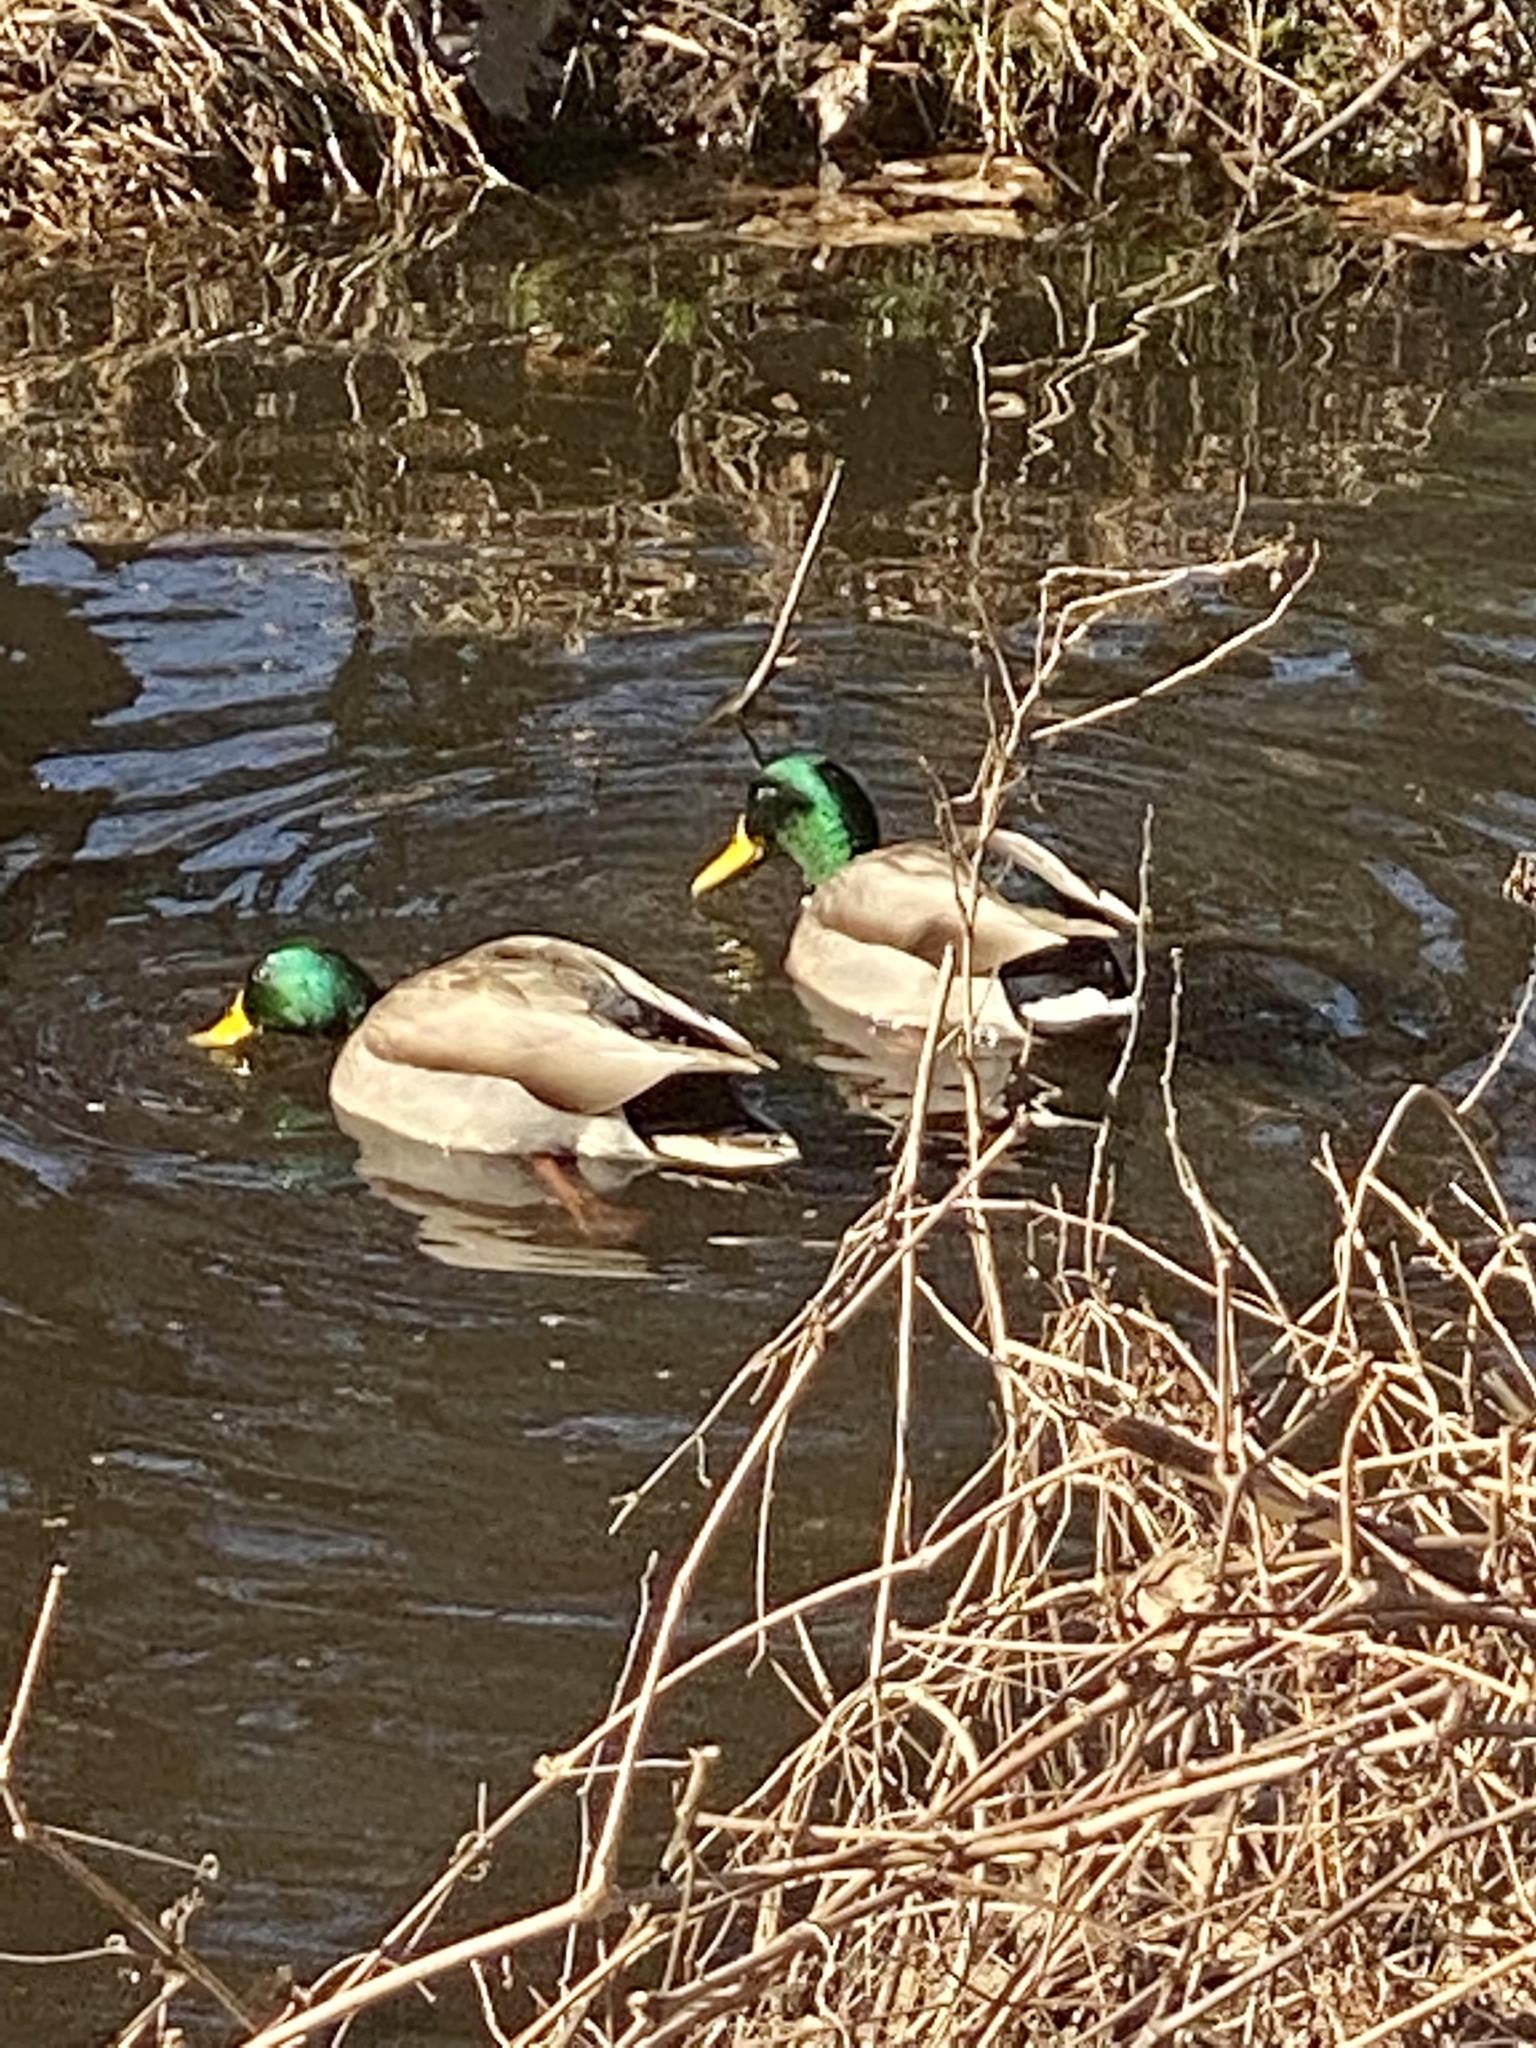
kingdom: Animalia
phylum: Chordata
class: Aves
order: Anseriformes
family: Anatidae
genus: Anas
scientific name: Anas platyrhynchos
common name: Mallard
